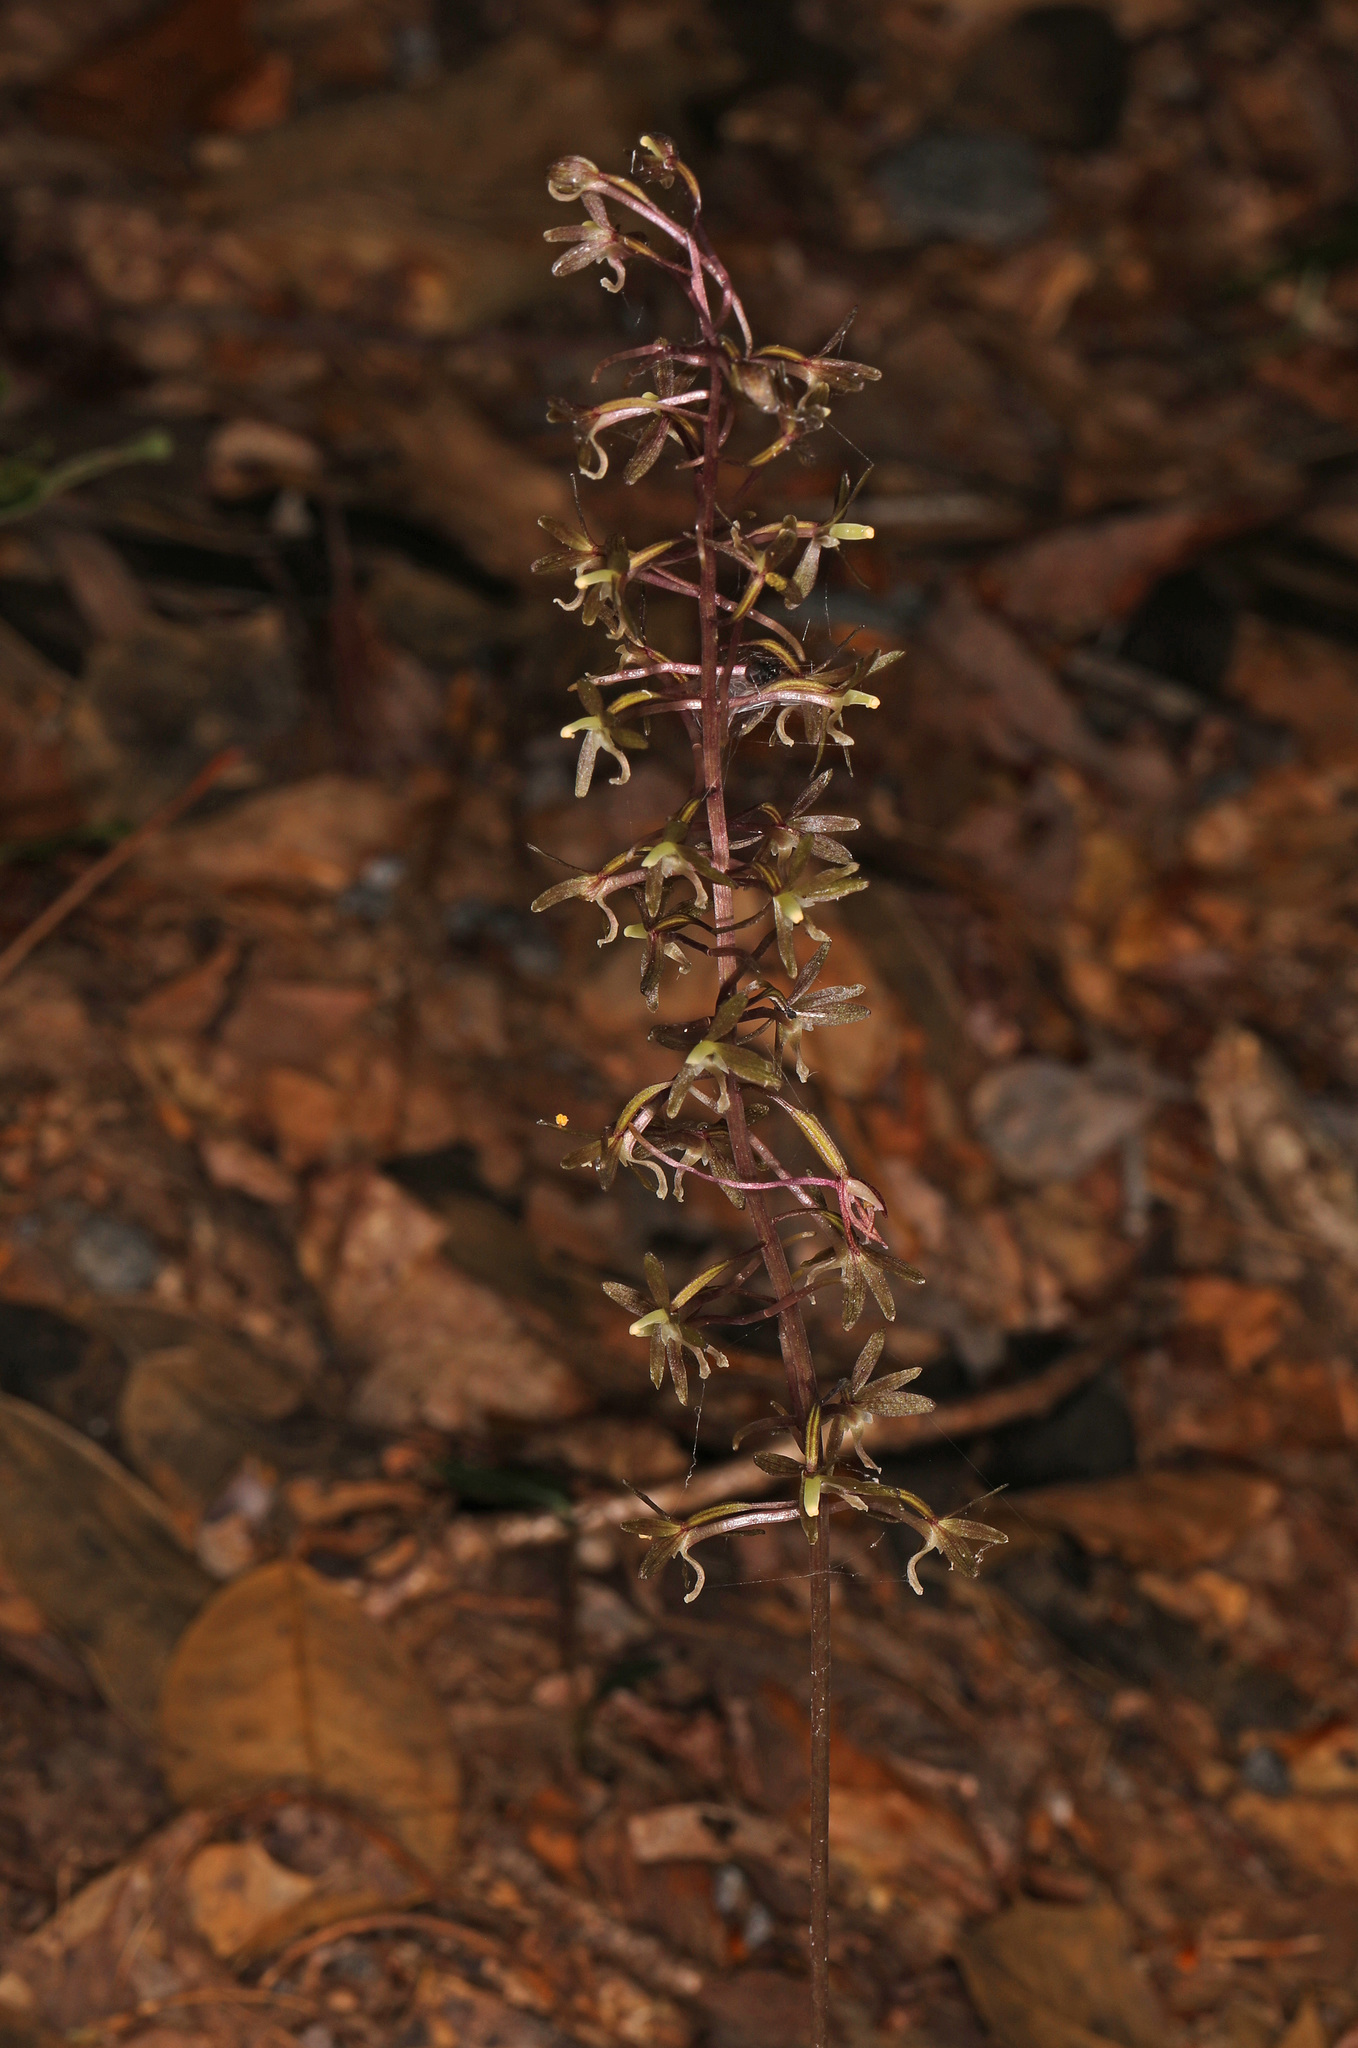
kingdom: Plantae
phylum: Tracheophyta
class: Liliopsida
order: Asparagales
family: Orchidaceae
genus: Tipularia
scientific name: Tipularia discolor
